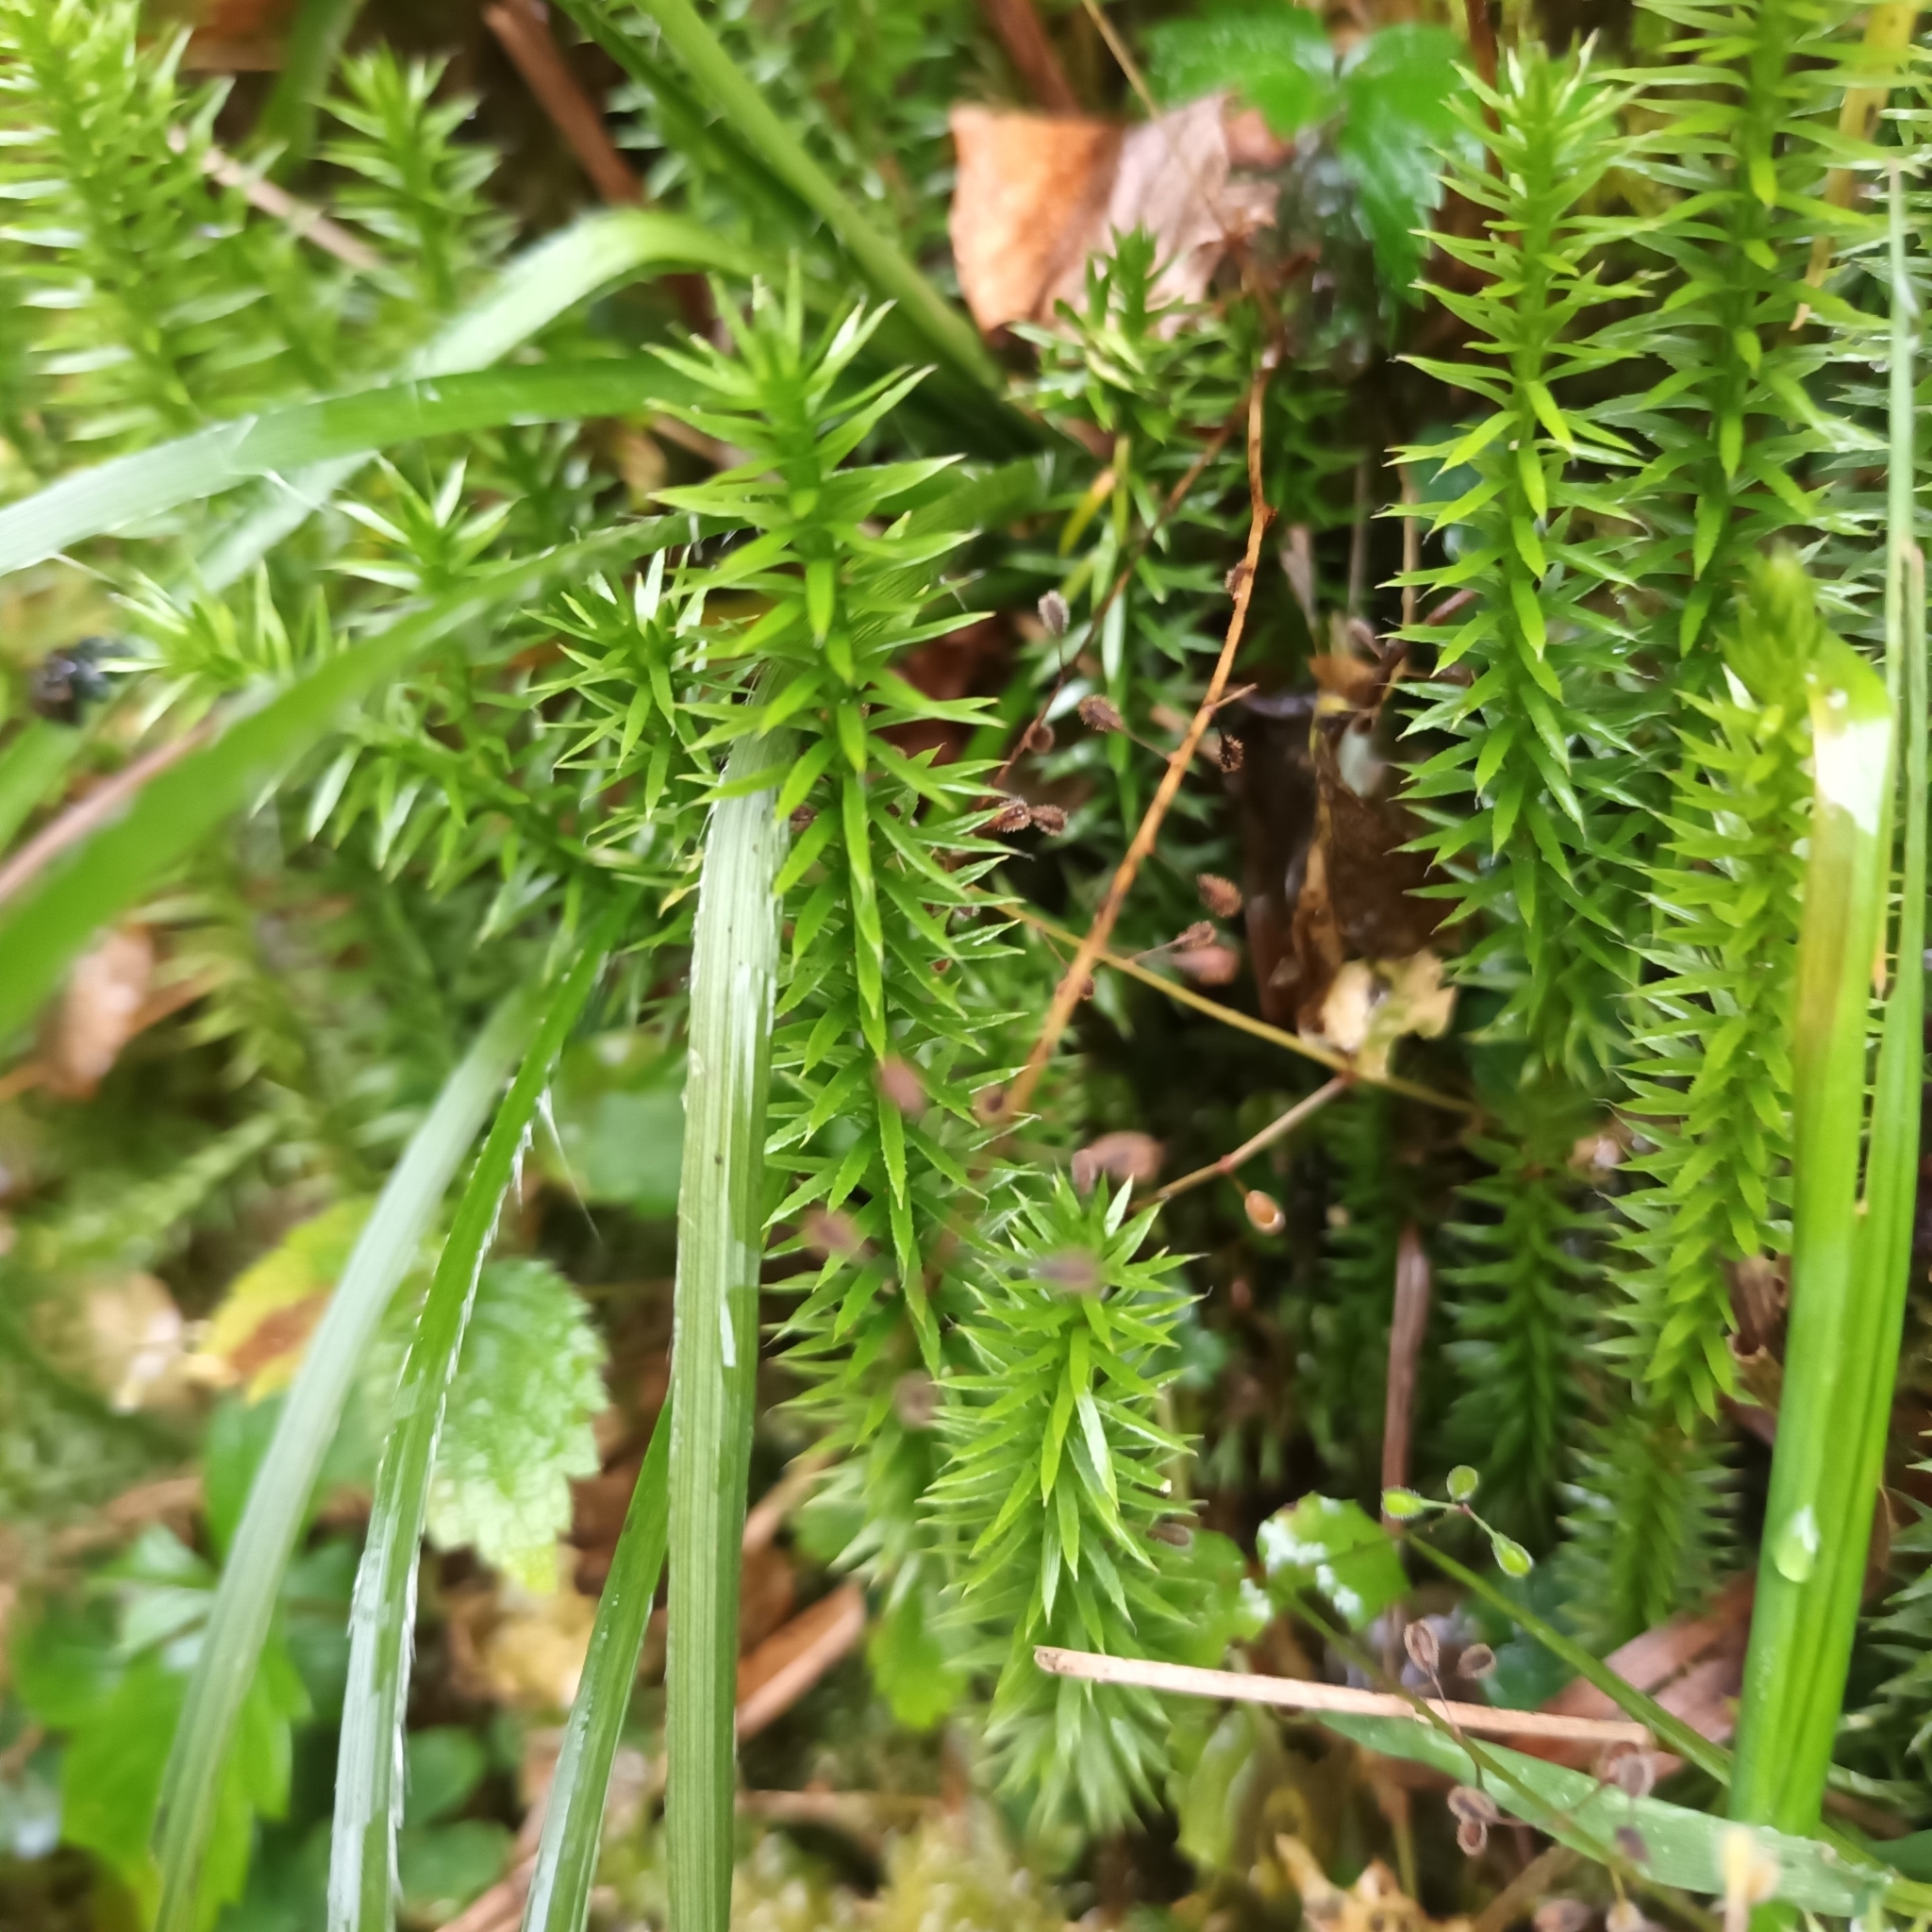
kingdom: Plantae
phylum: Tracheophyta
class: Lycopodiopsida
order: Lycopodiales
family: Lycopodiaceae
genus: Spinulum
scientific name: Spinulum annotinum
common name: Interrupted club-moss
